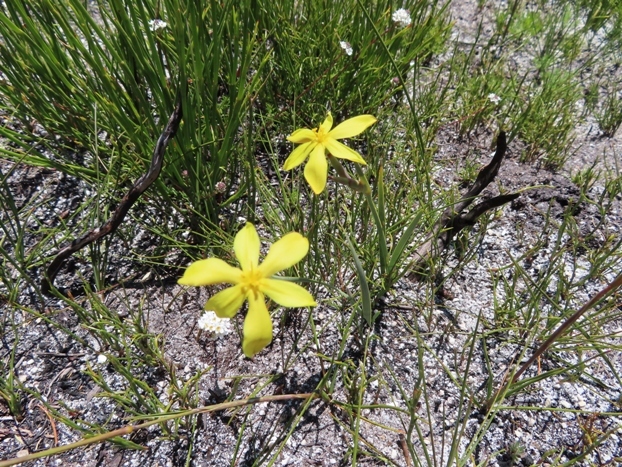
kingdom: Plantae
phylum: Tracheophyta
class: Liliopsida
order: Asparagales
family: Iridaceae
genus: Bobartia
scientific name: Bobartia filiformis
